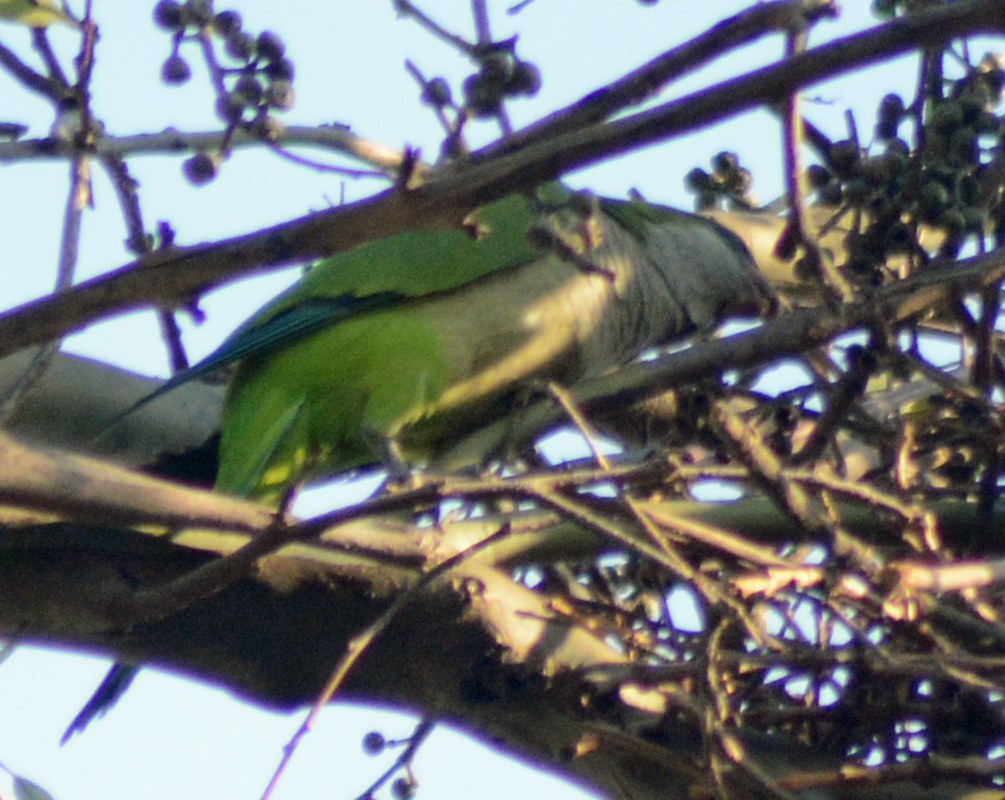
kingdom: Animalia
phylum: Chordata
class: Aves
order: Psittaciformes
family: Psittacidae
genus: Myiopsitta
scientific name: Myiopsitta monachus
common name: Monk parakeet
